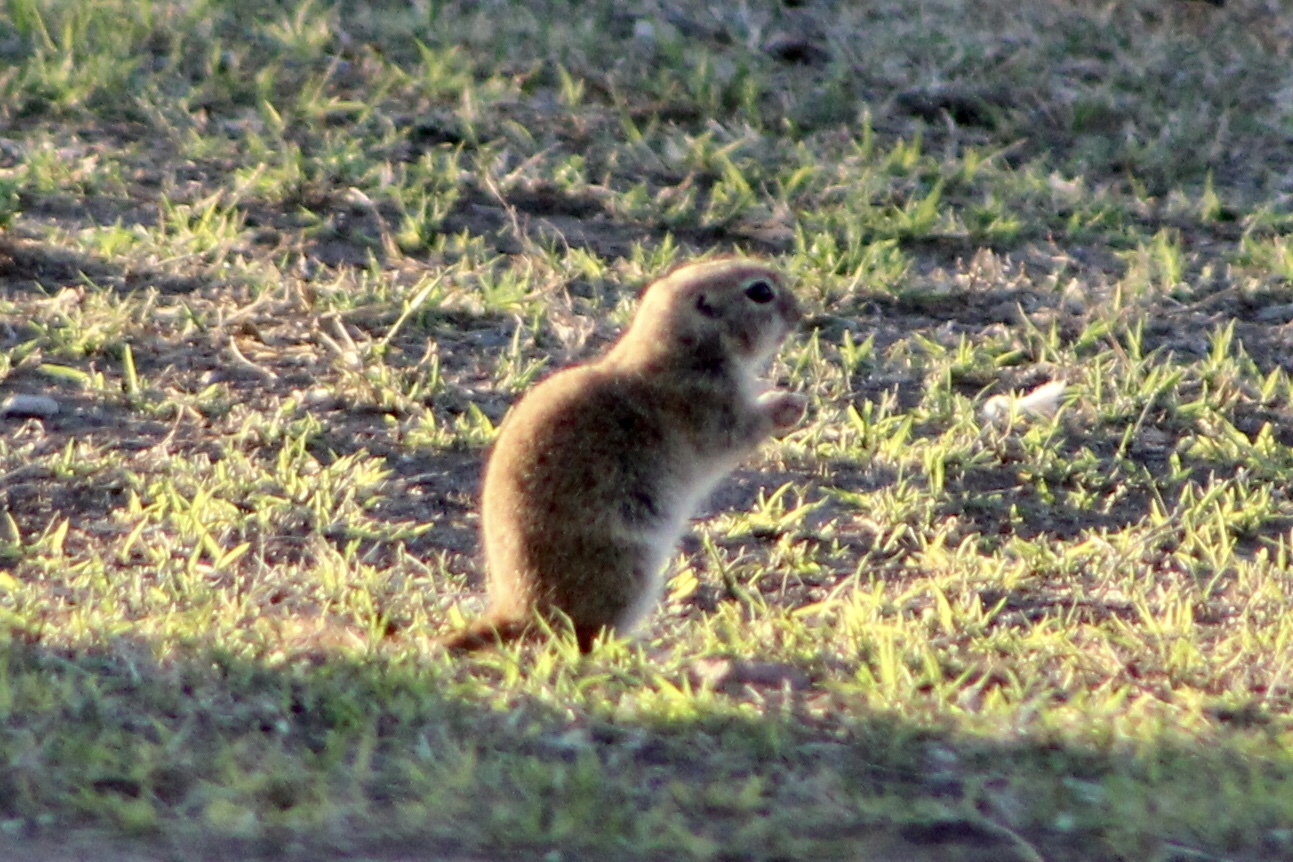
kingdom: Animalia
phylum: Chordata
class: Mammalia
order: Rodentia
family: Sciuridae
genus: Xerospermophilus
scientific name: Xerospermophilus tereticaudus
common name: Round-tailed ground squirrel
